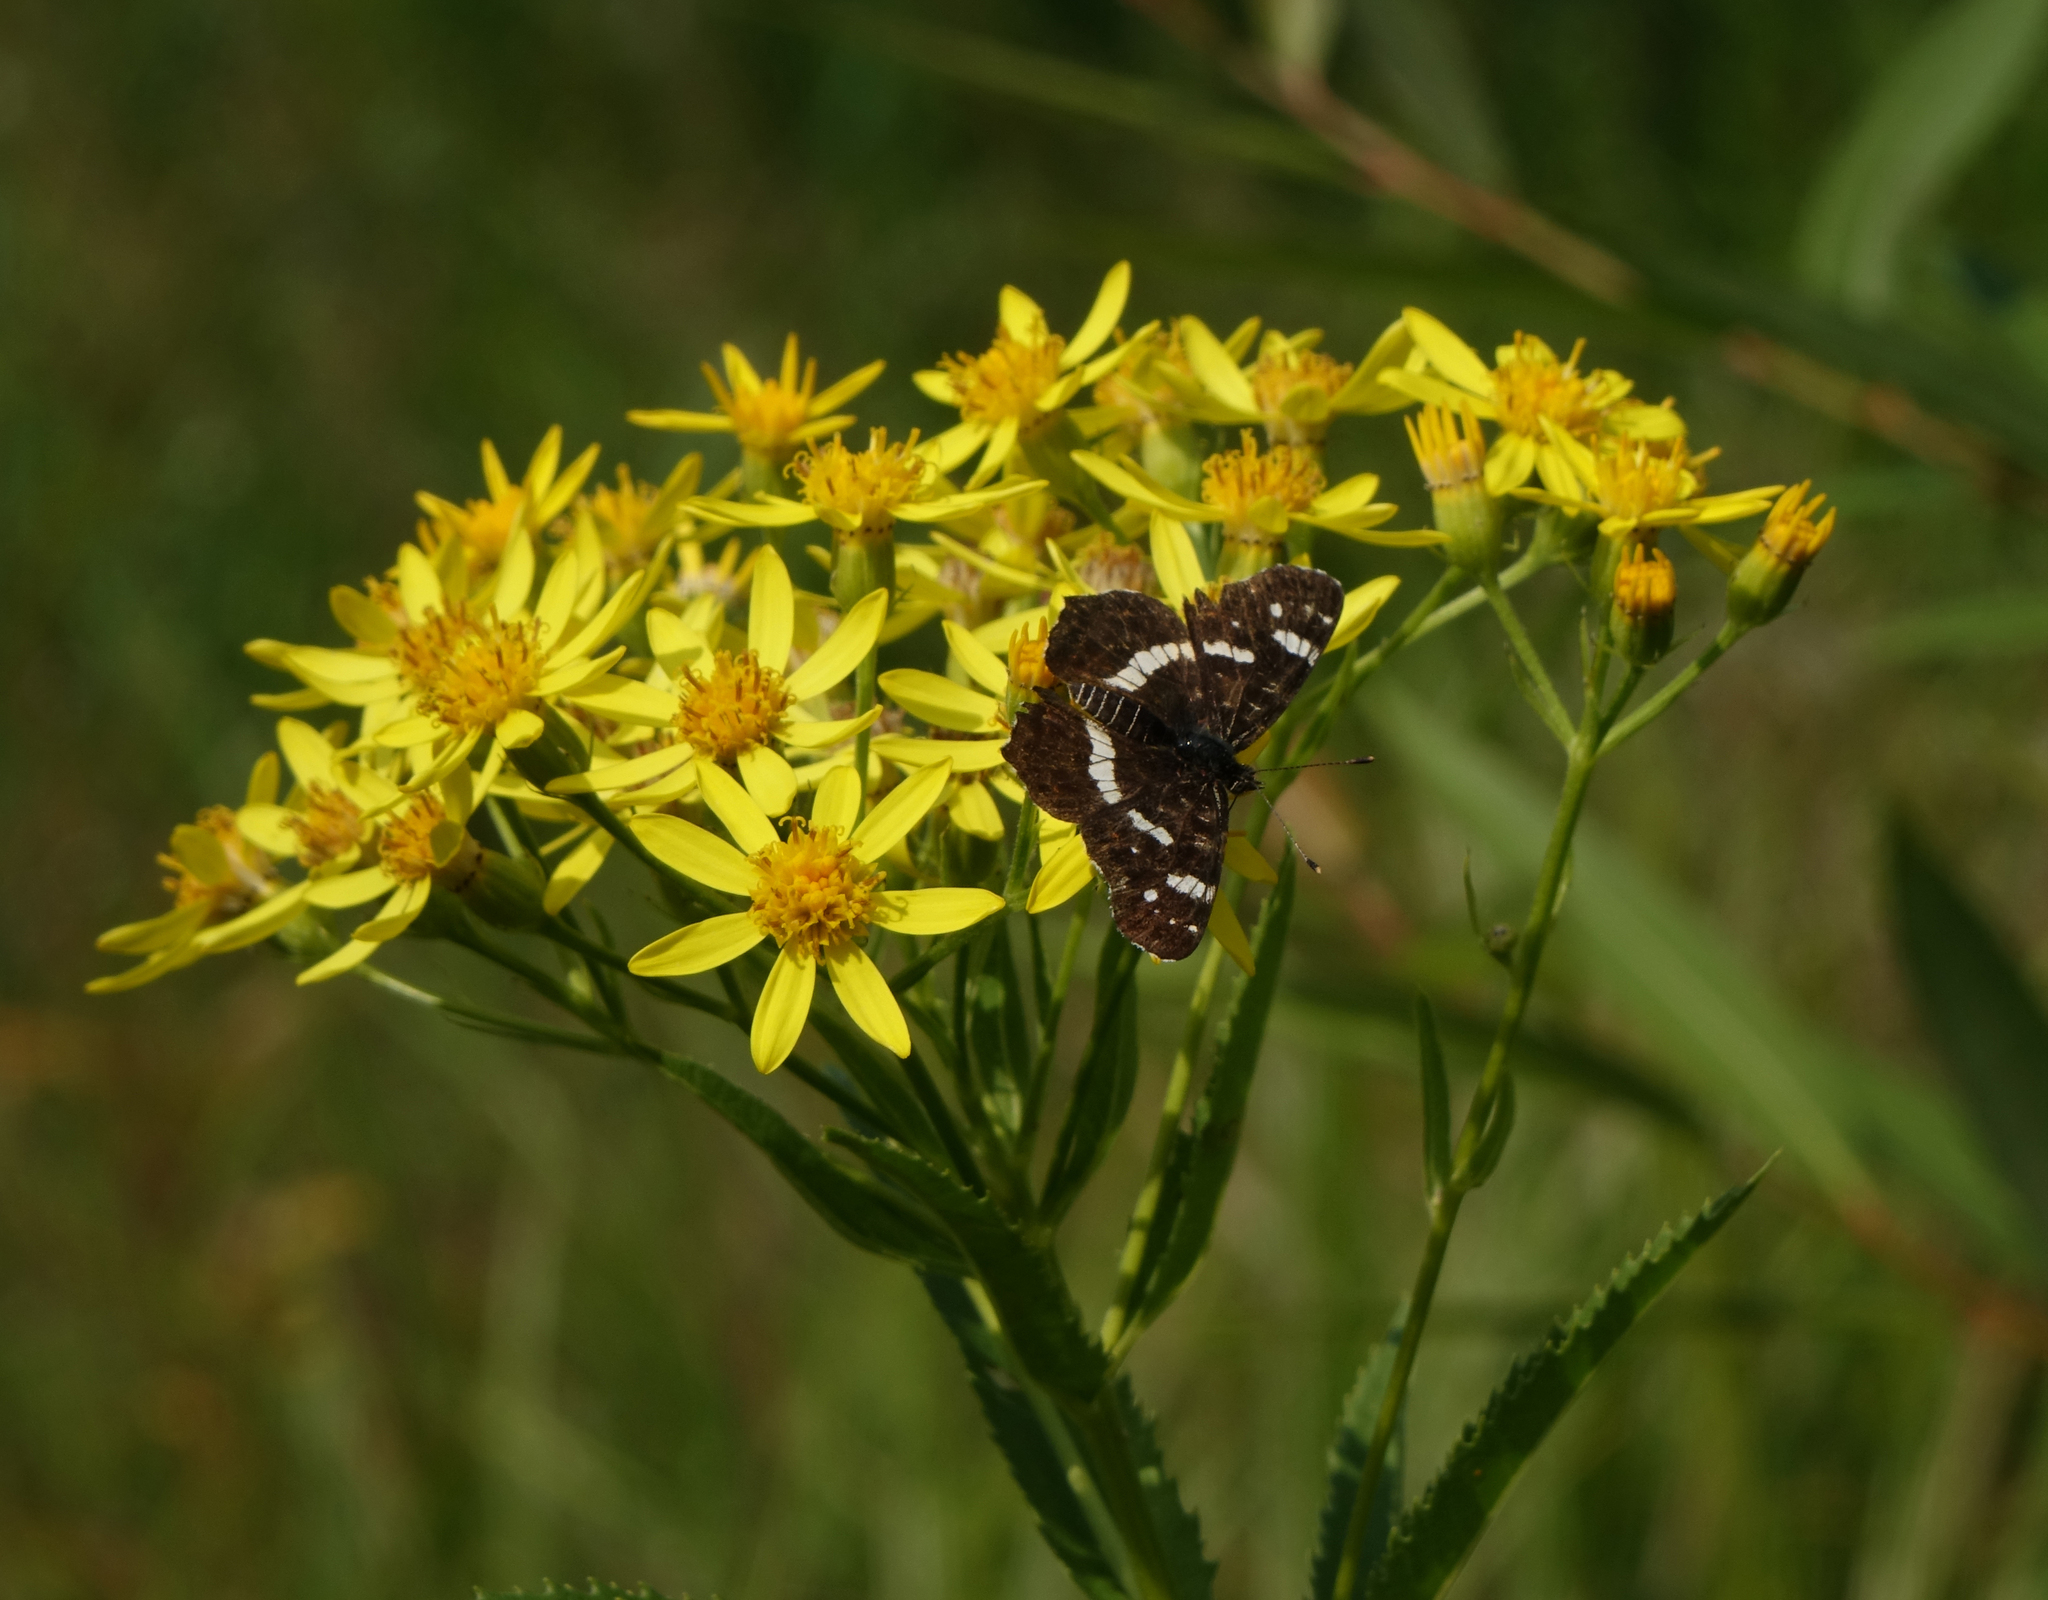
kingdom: Animalia
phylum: Arthropoda
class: Insecta
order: Lepidoptera
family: Nymphalidae
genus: Araschnia
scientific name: Araschnia levana
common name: Map butterfly
